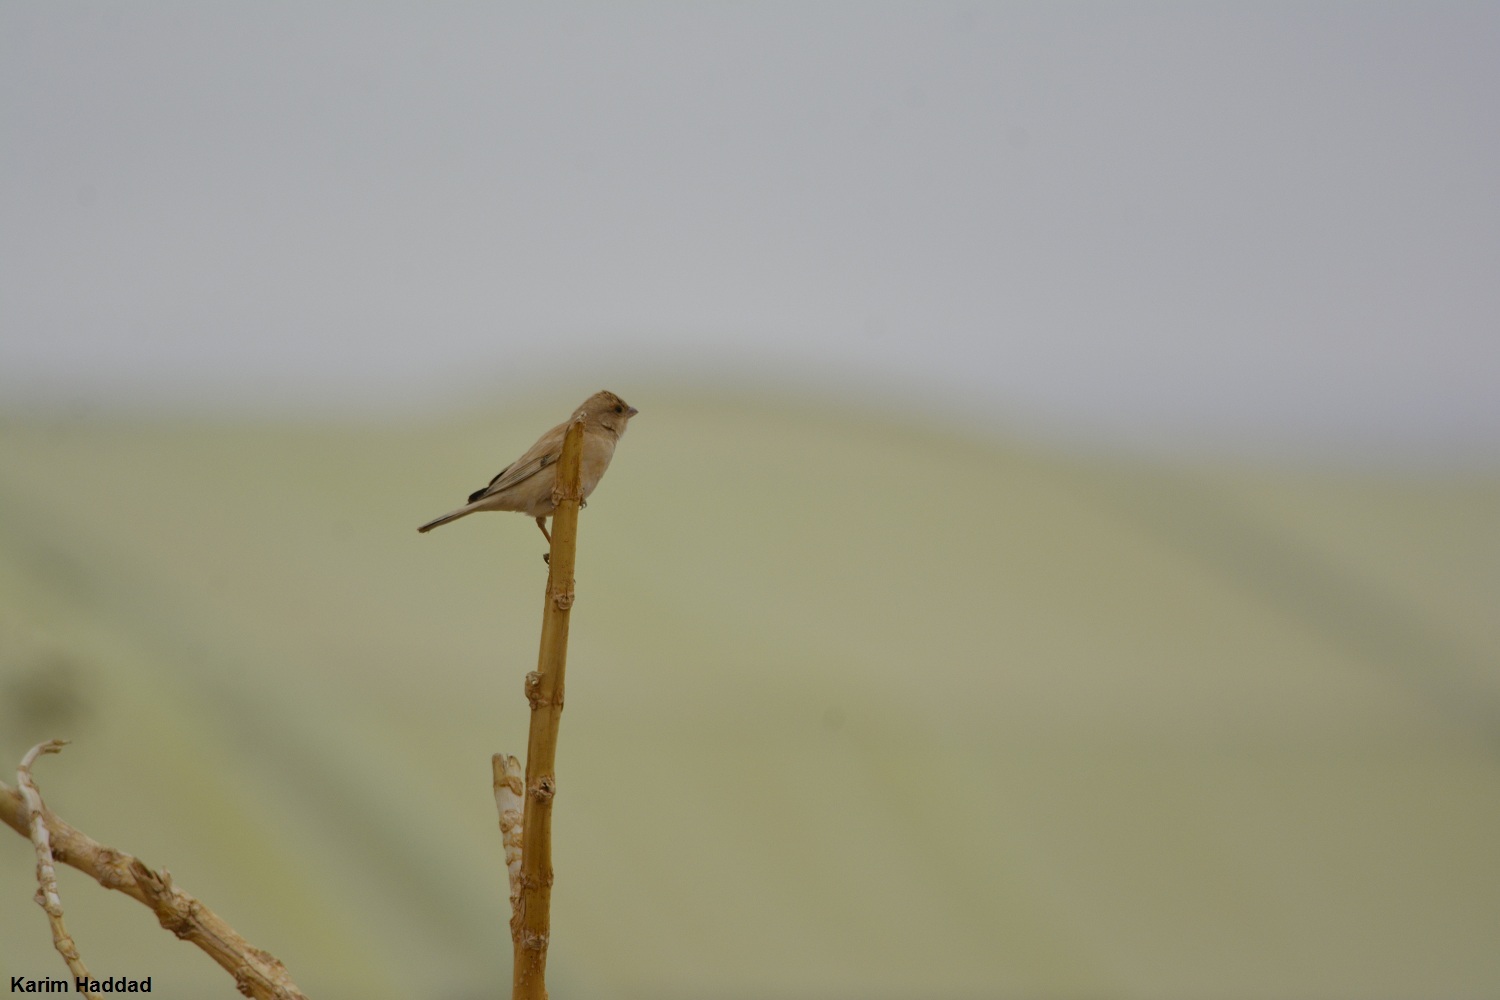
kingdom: Animalia
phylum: Chordata
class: Aves
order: Passeriformes
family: Passeridae
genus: Passer
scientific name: Passer simplex
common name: Desert sparrow
